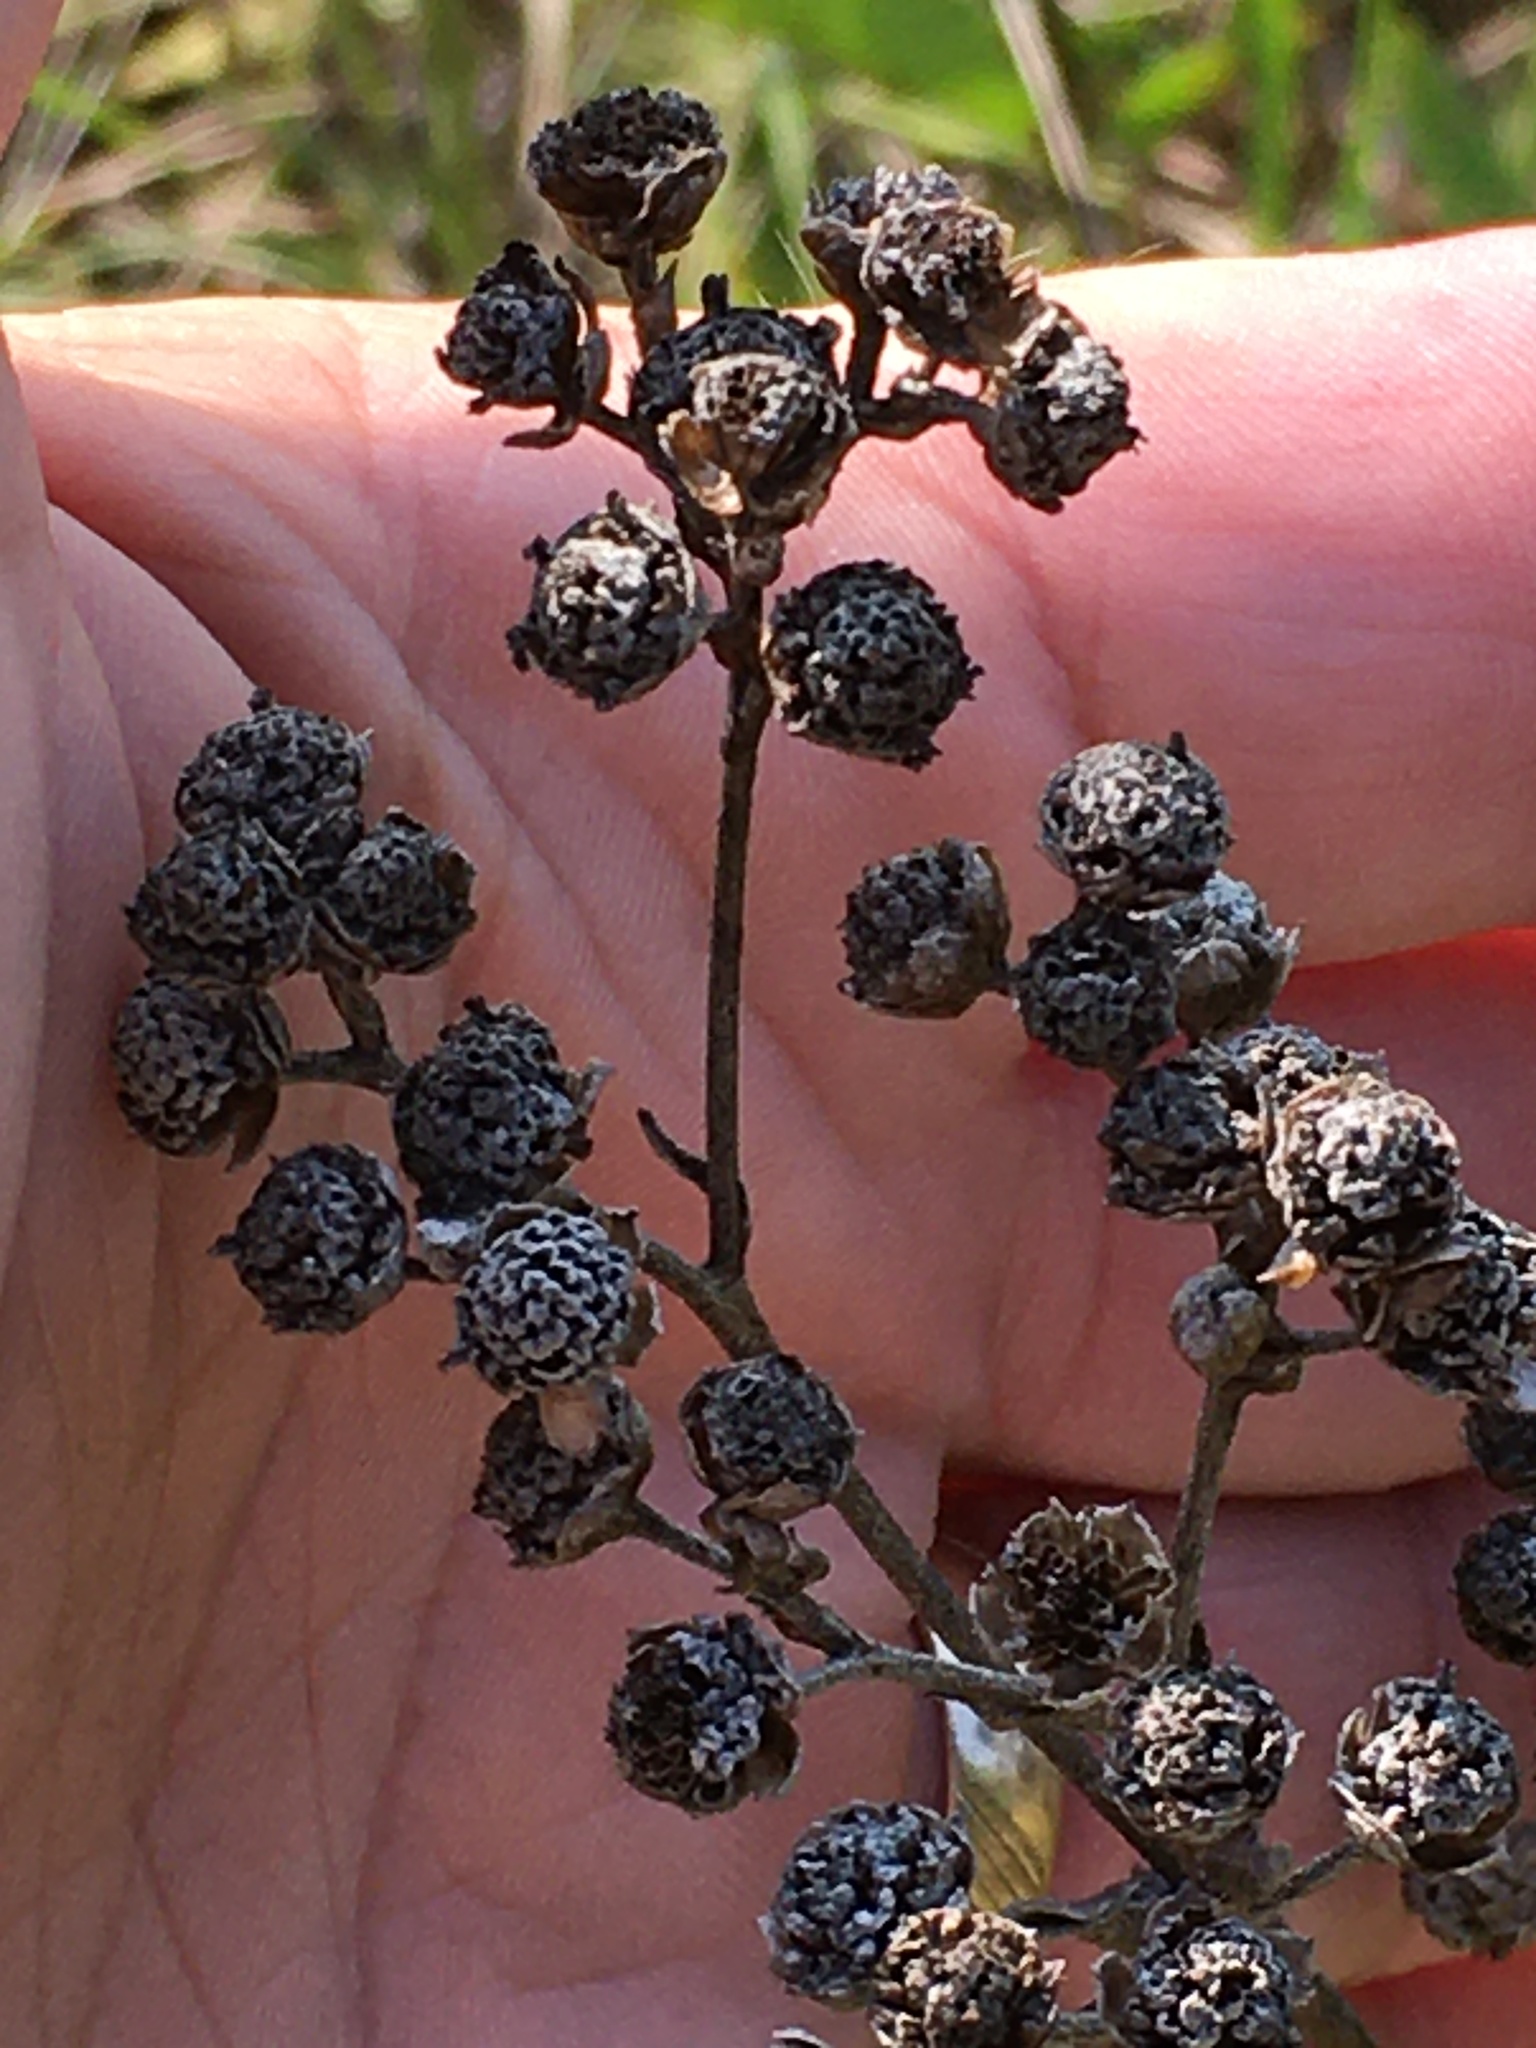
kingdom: Plantae
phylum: Tracheophyta
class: Magnoliopsida
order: Asterales
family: Asteraceae
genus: Parthenium
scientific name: Parthenium integrifolium
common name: American feverfew
